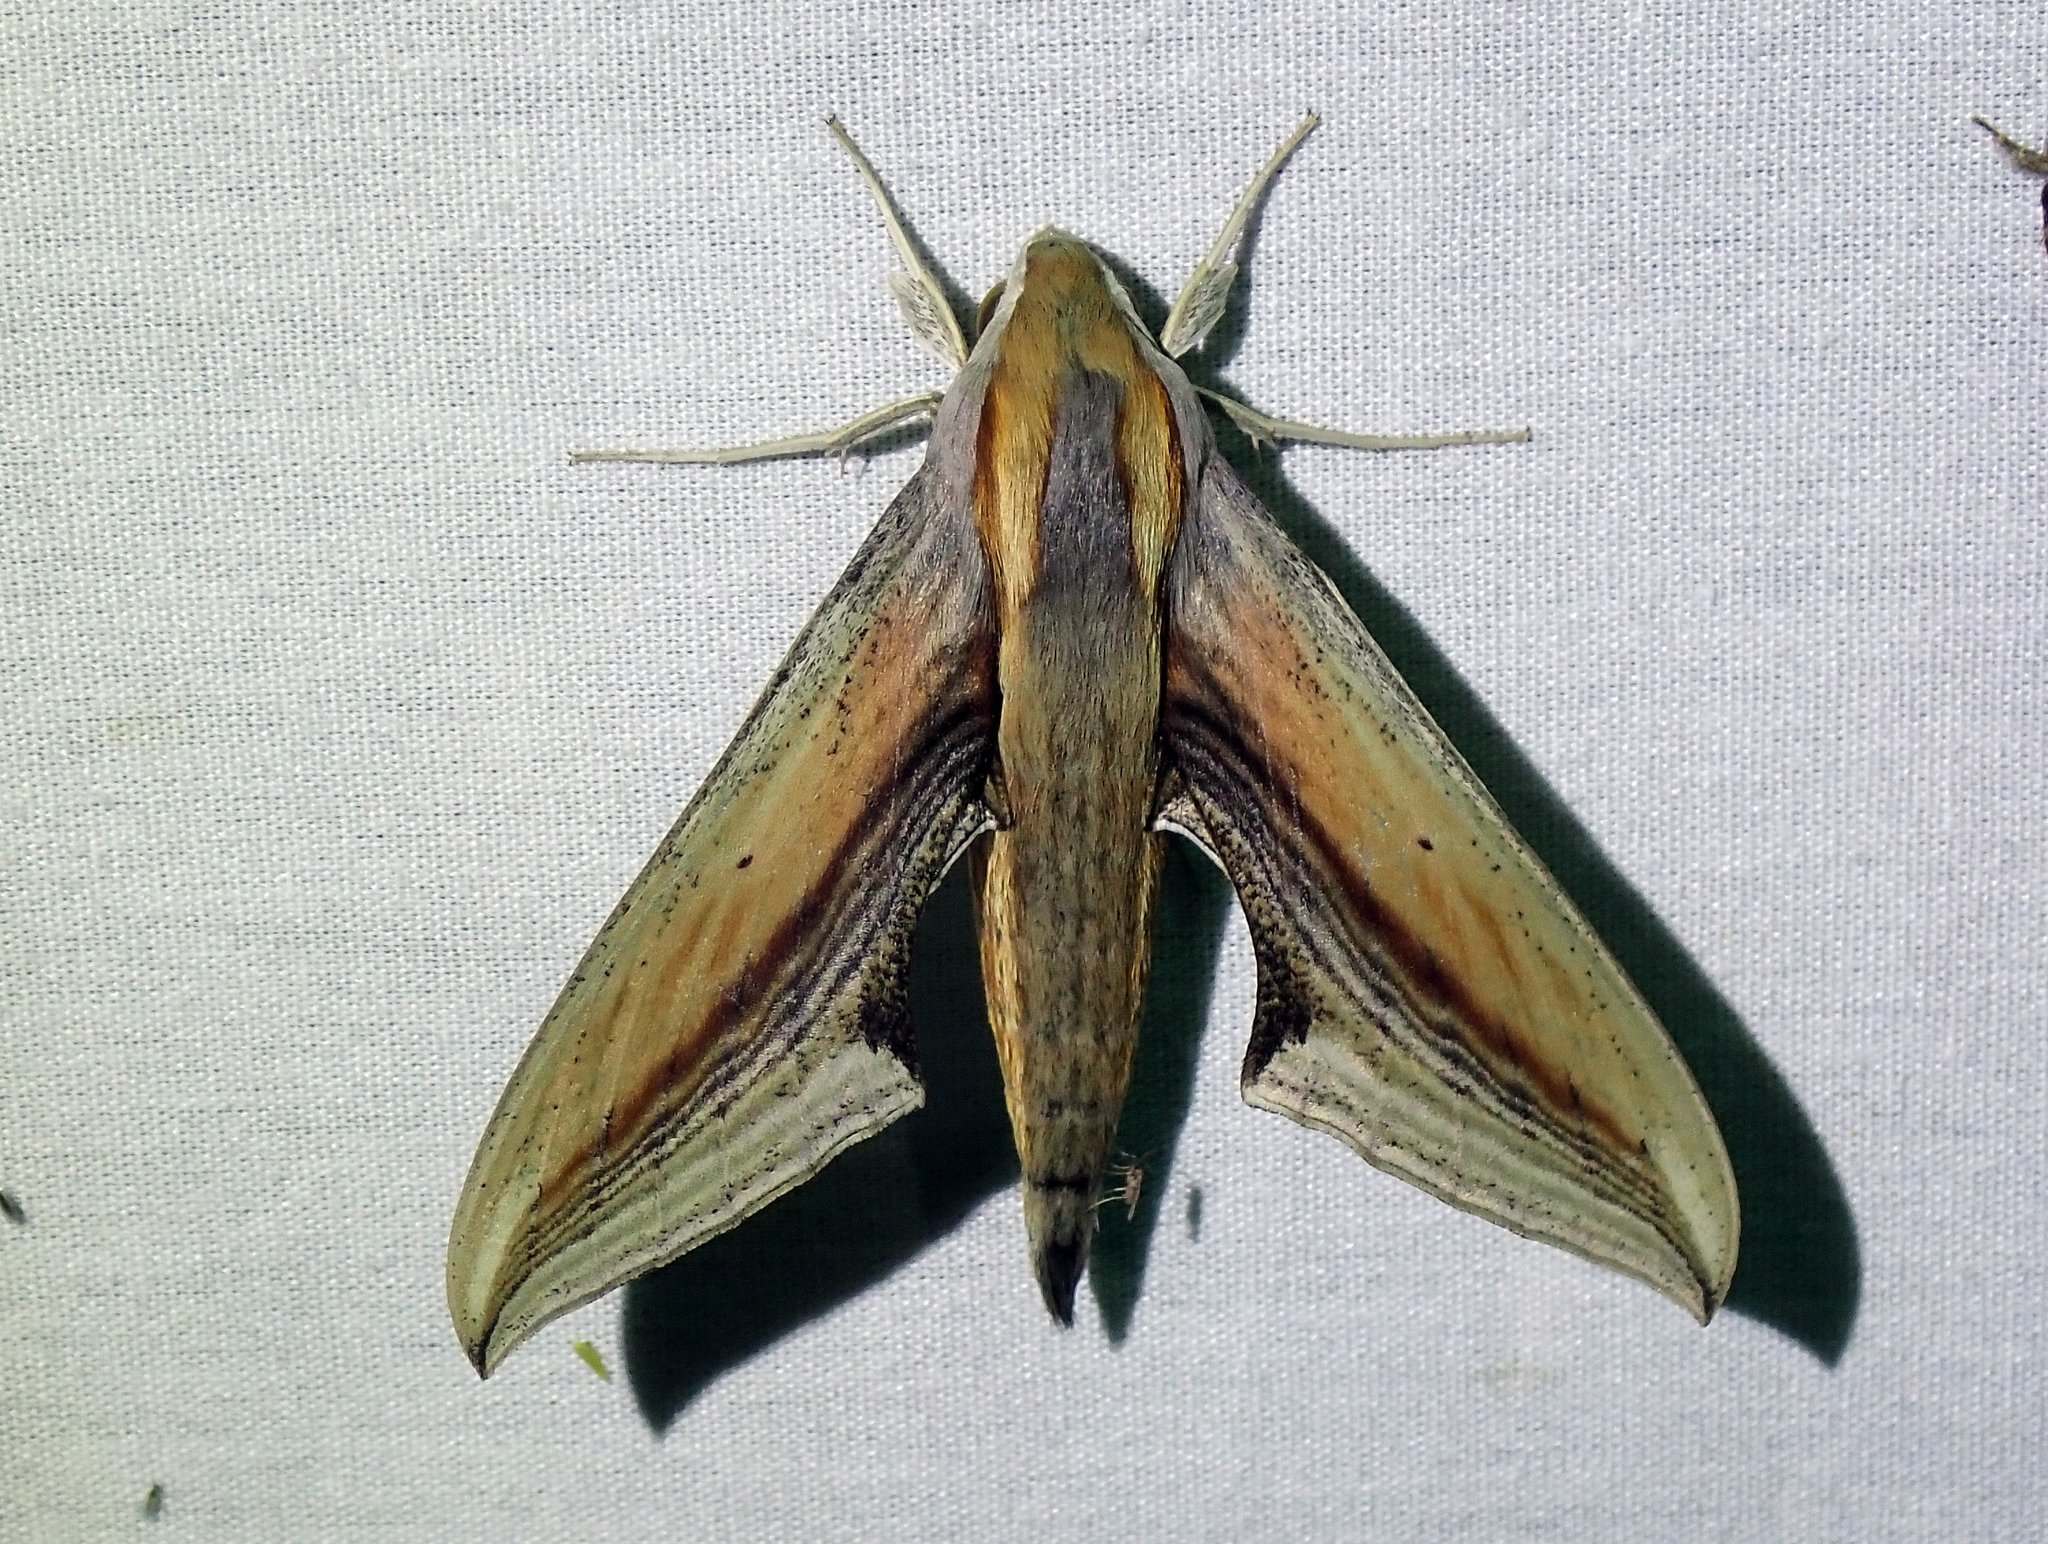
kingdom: Animalia
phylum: Arthropoda
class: Insecta
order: Lepidoptera
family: Sphingidae
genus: Xylophanes
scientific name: Xylophanes falco
